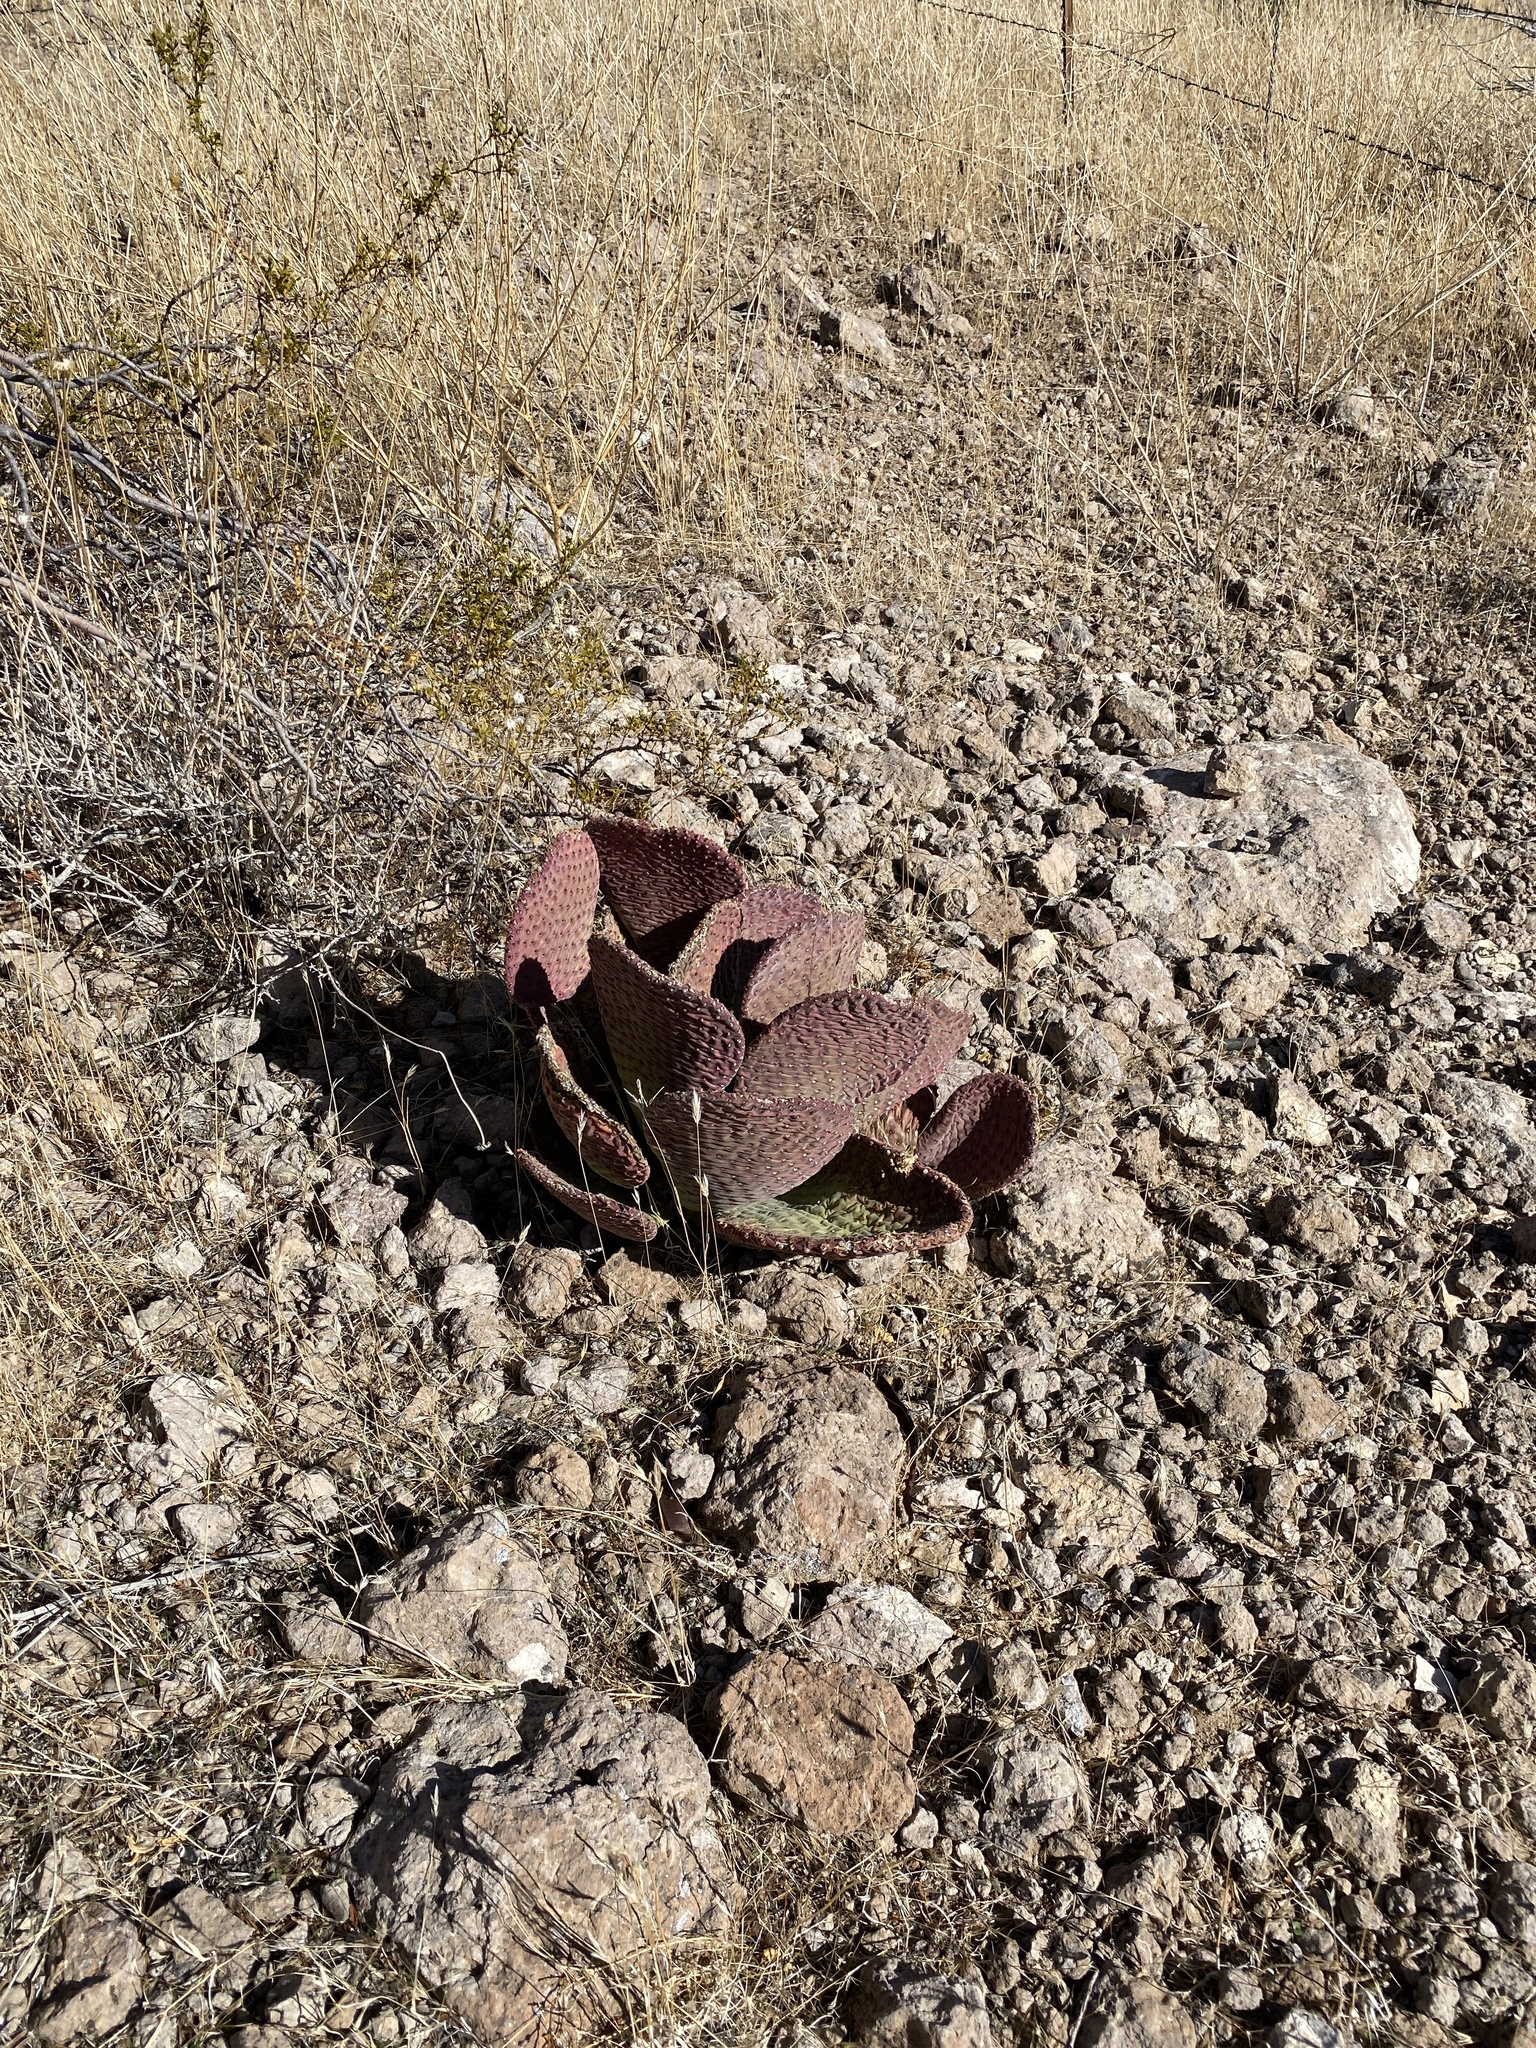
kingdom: Plantae
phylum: Tracheophyta
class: Magnoliopsida
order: Caryophyllales
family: Cactaceae
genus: Opuntia
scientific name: Opuntia basilaris
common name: Beavertail prickly-pear
